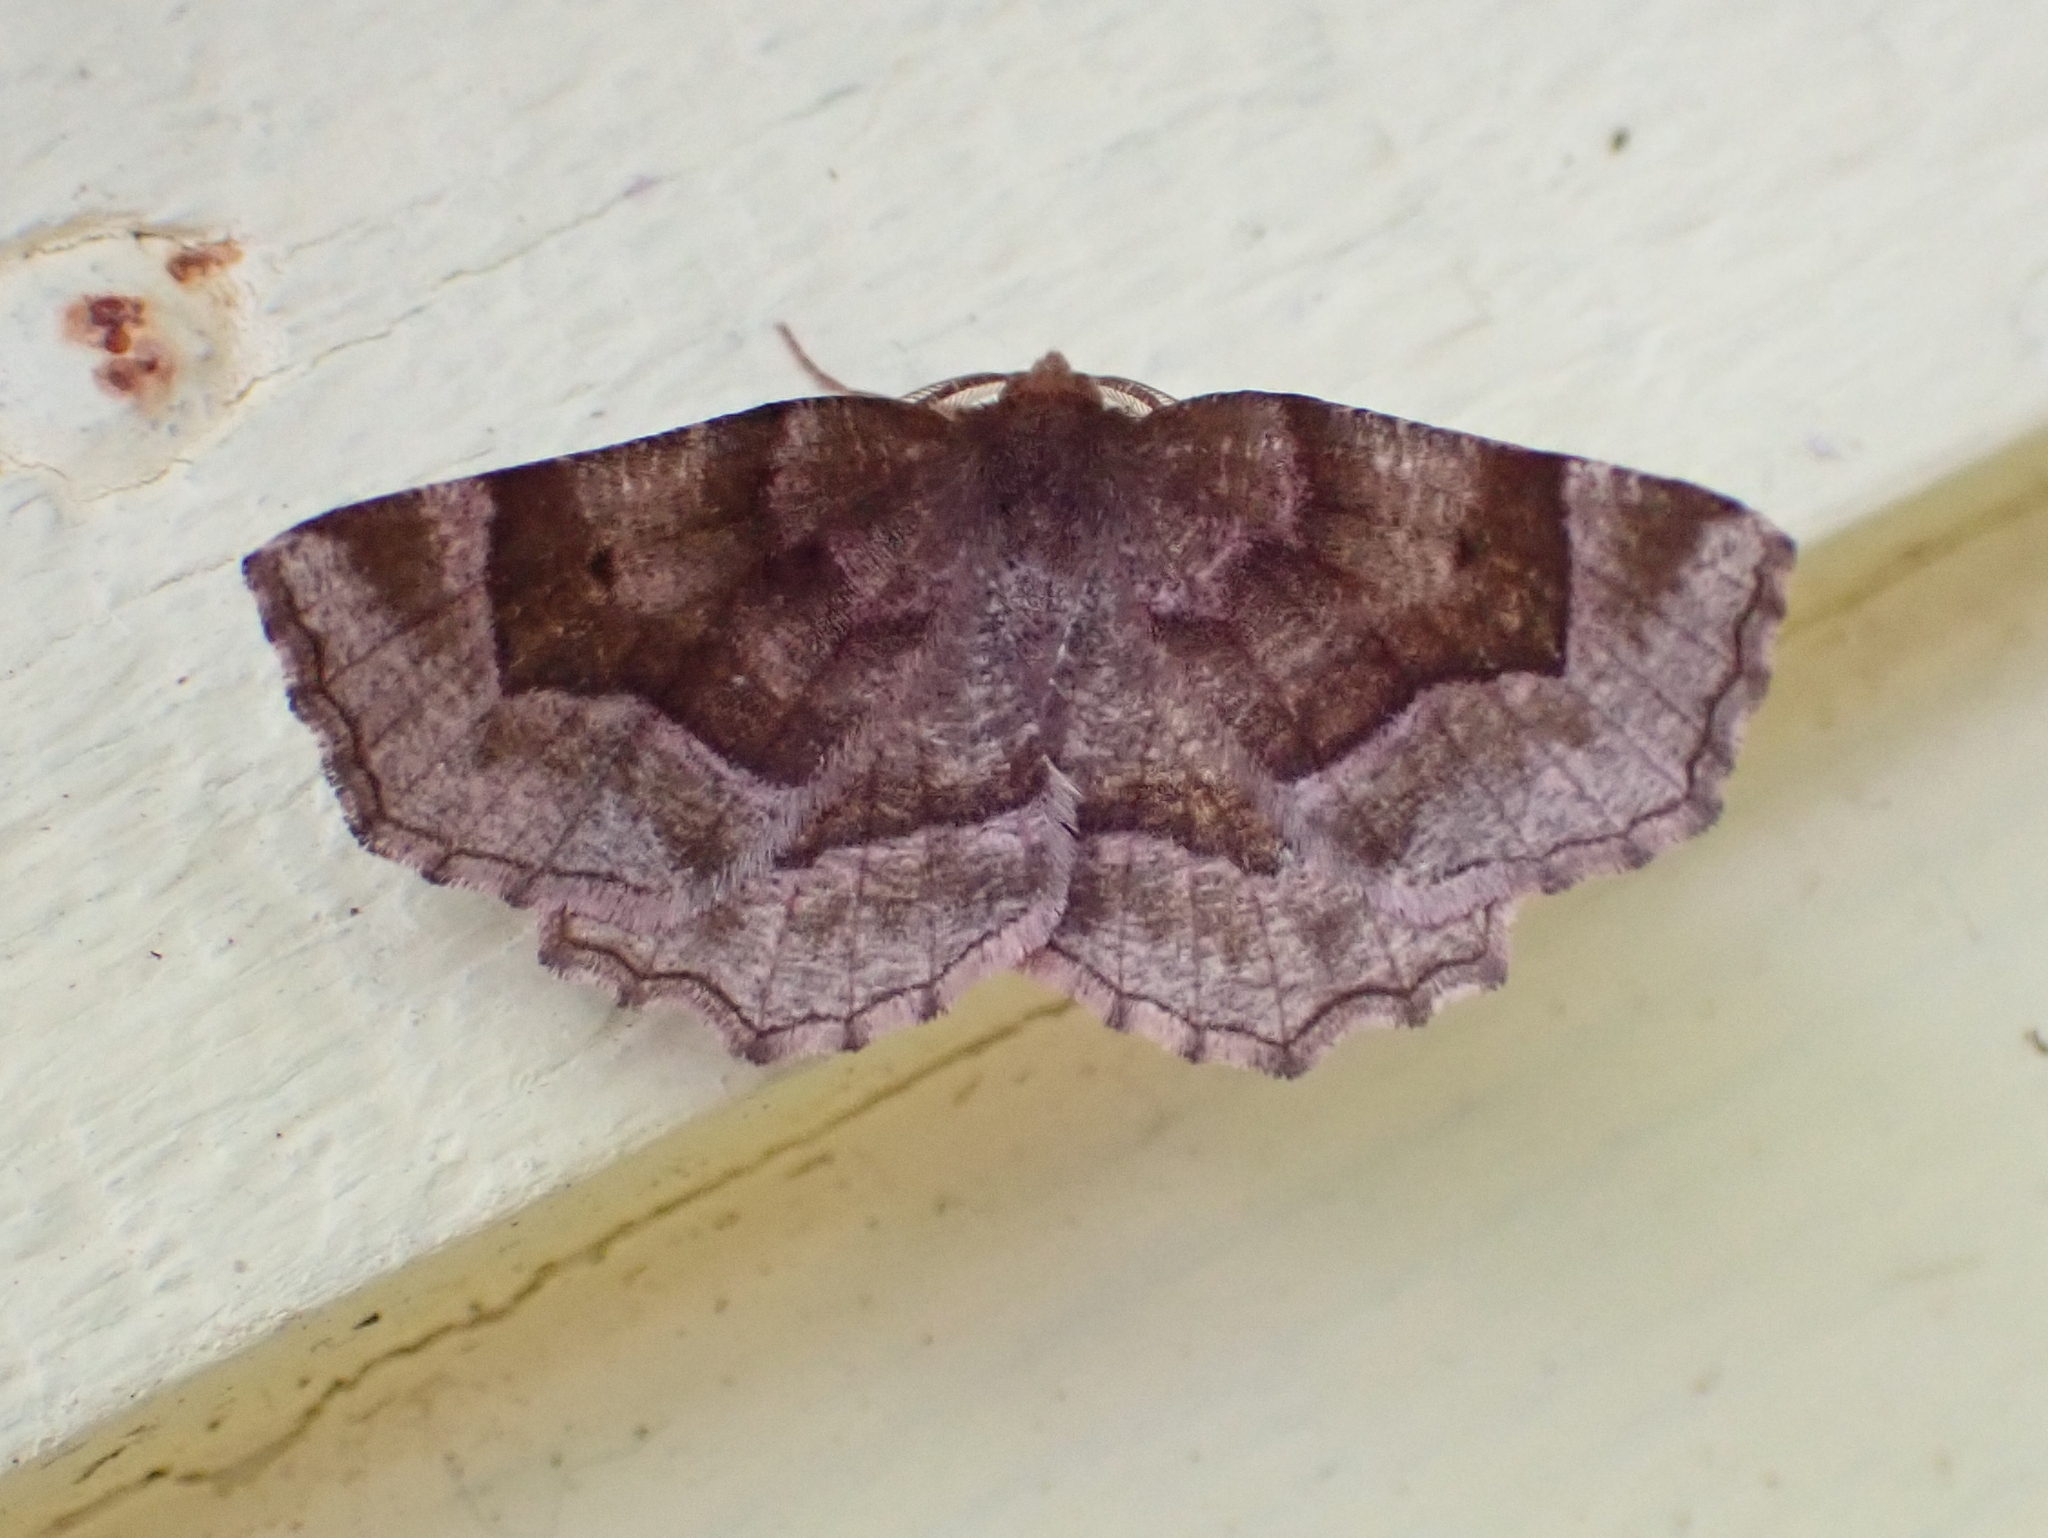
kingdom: Animalia
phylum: Arthropoda
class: Insecta
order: Lepidoptera
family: Geometridae
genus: Metarranthis
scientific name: Metarranthis refractaria
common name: Refracted metarranthis moth
